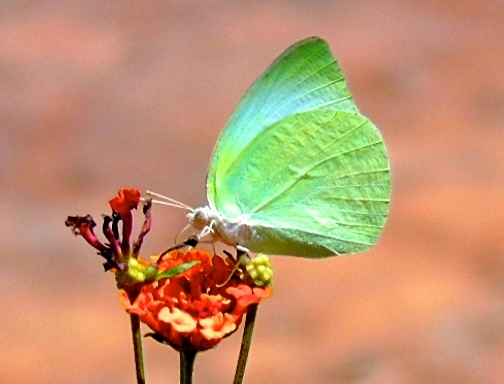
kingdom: Animalia
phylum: Arthropoda
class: Insecta
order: Lepidoptera
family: Pieridae
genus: Kricogonia
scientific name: Kricogonia lyside
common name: Guayacan sulphur,
